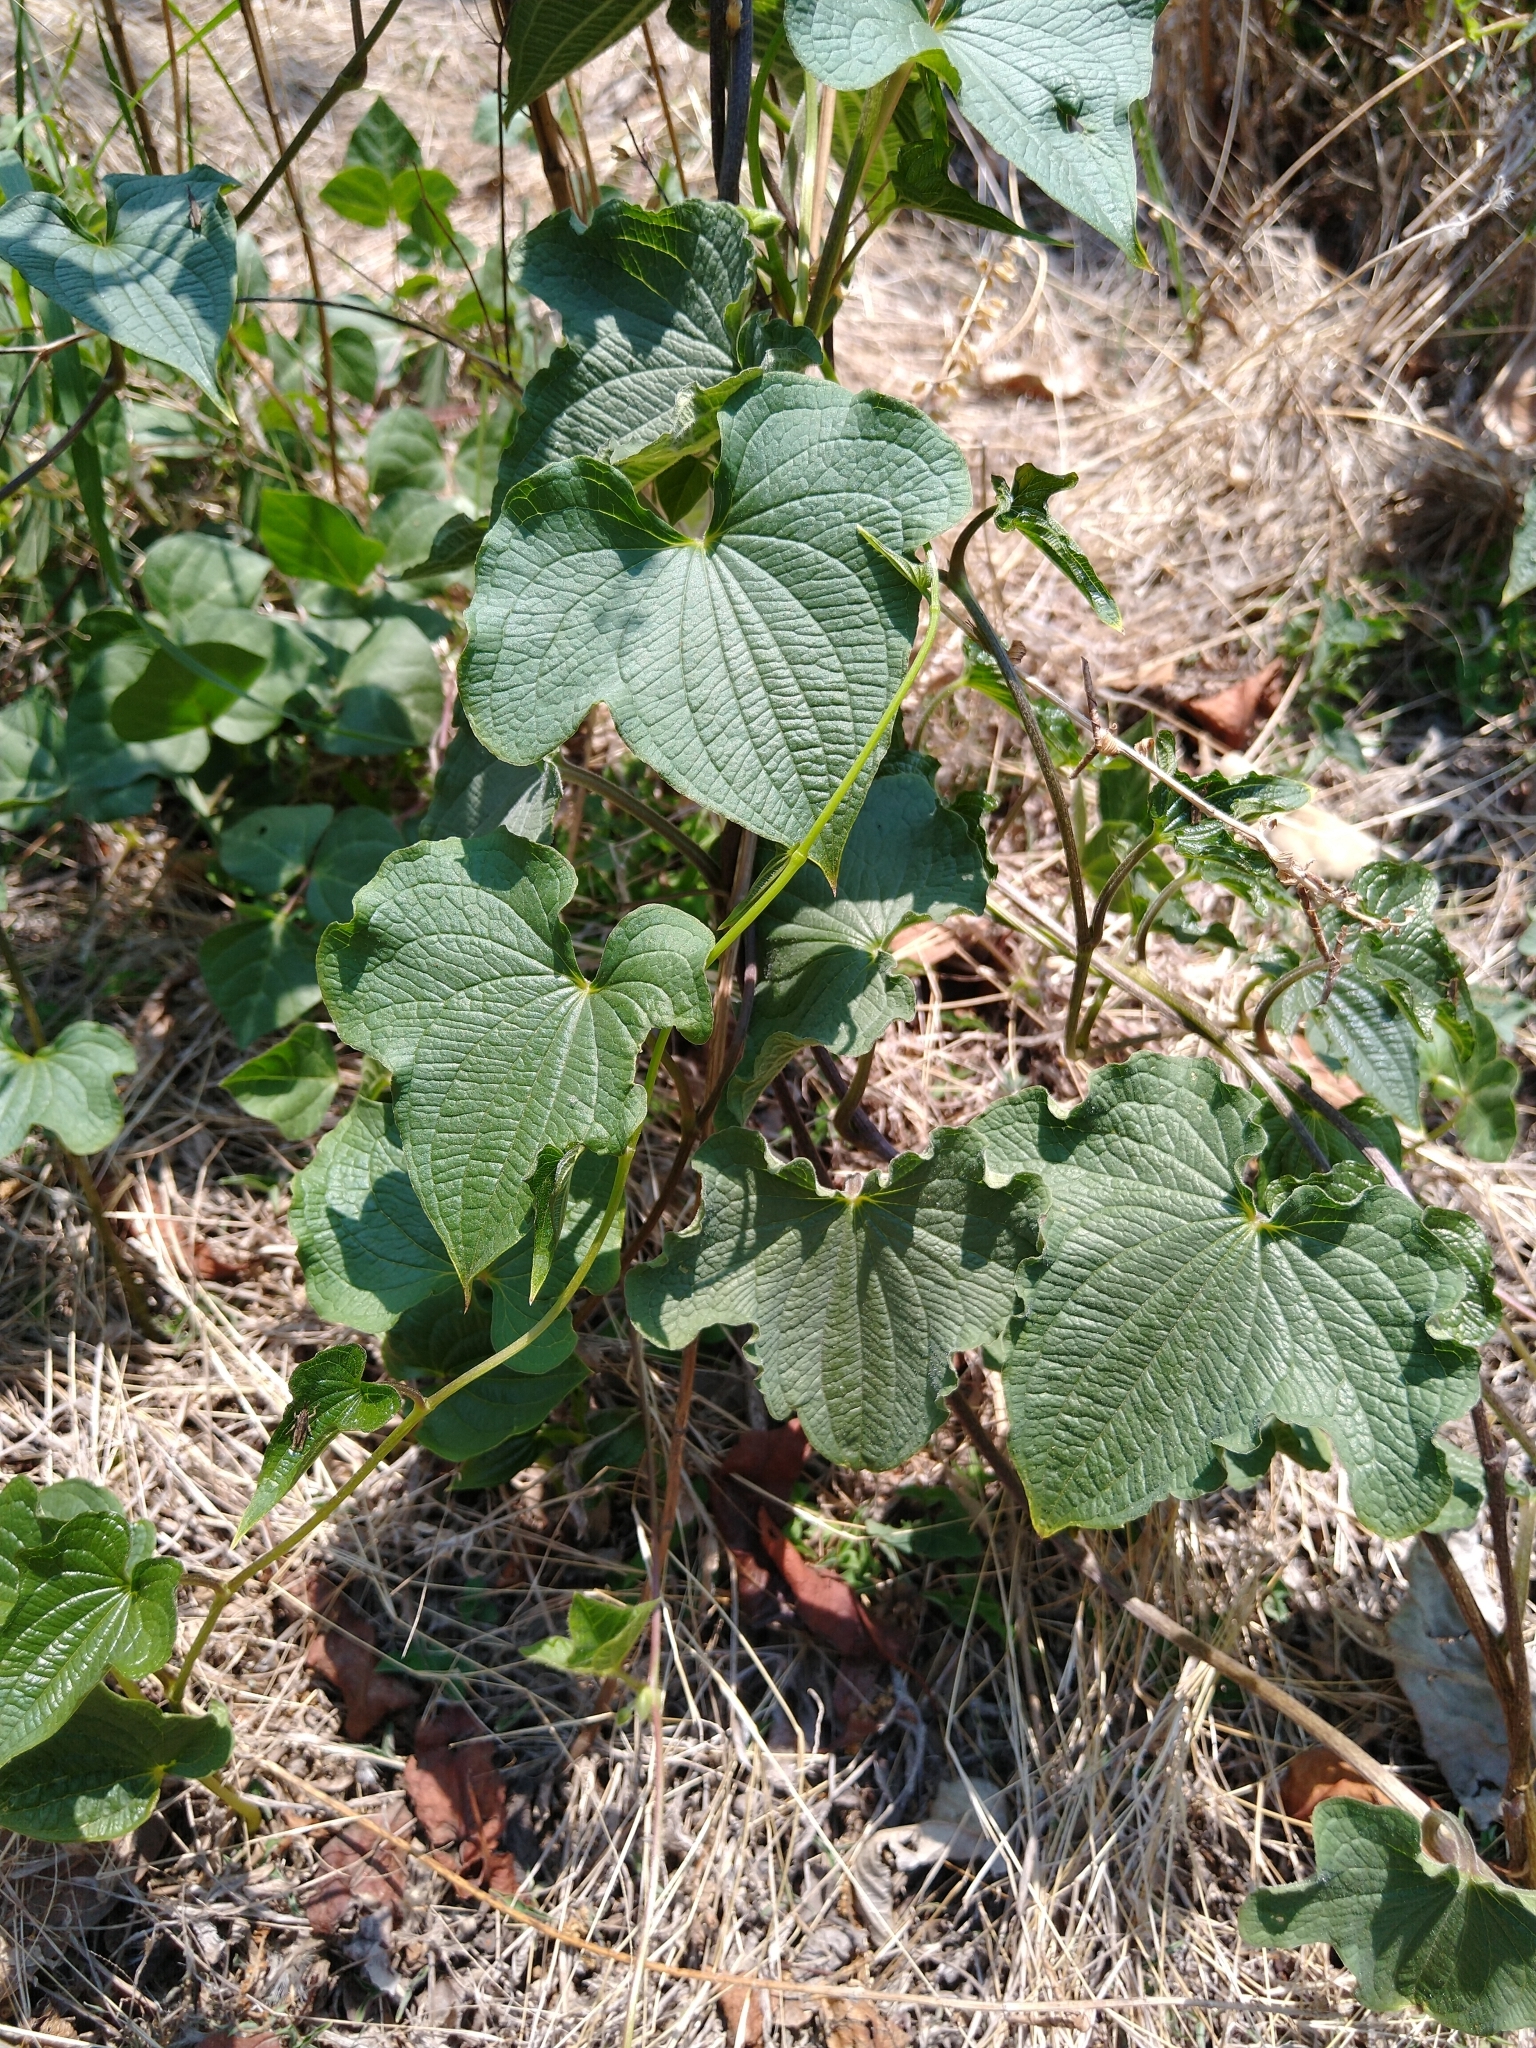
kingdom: Plantae
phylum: Tracheophyta
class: Liliopsida
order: Dioscoreales
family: Dioscoreaceae
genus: Dioscorea
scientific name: Dioscorea galeottiana
